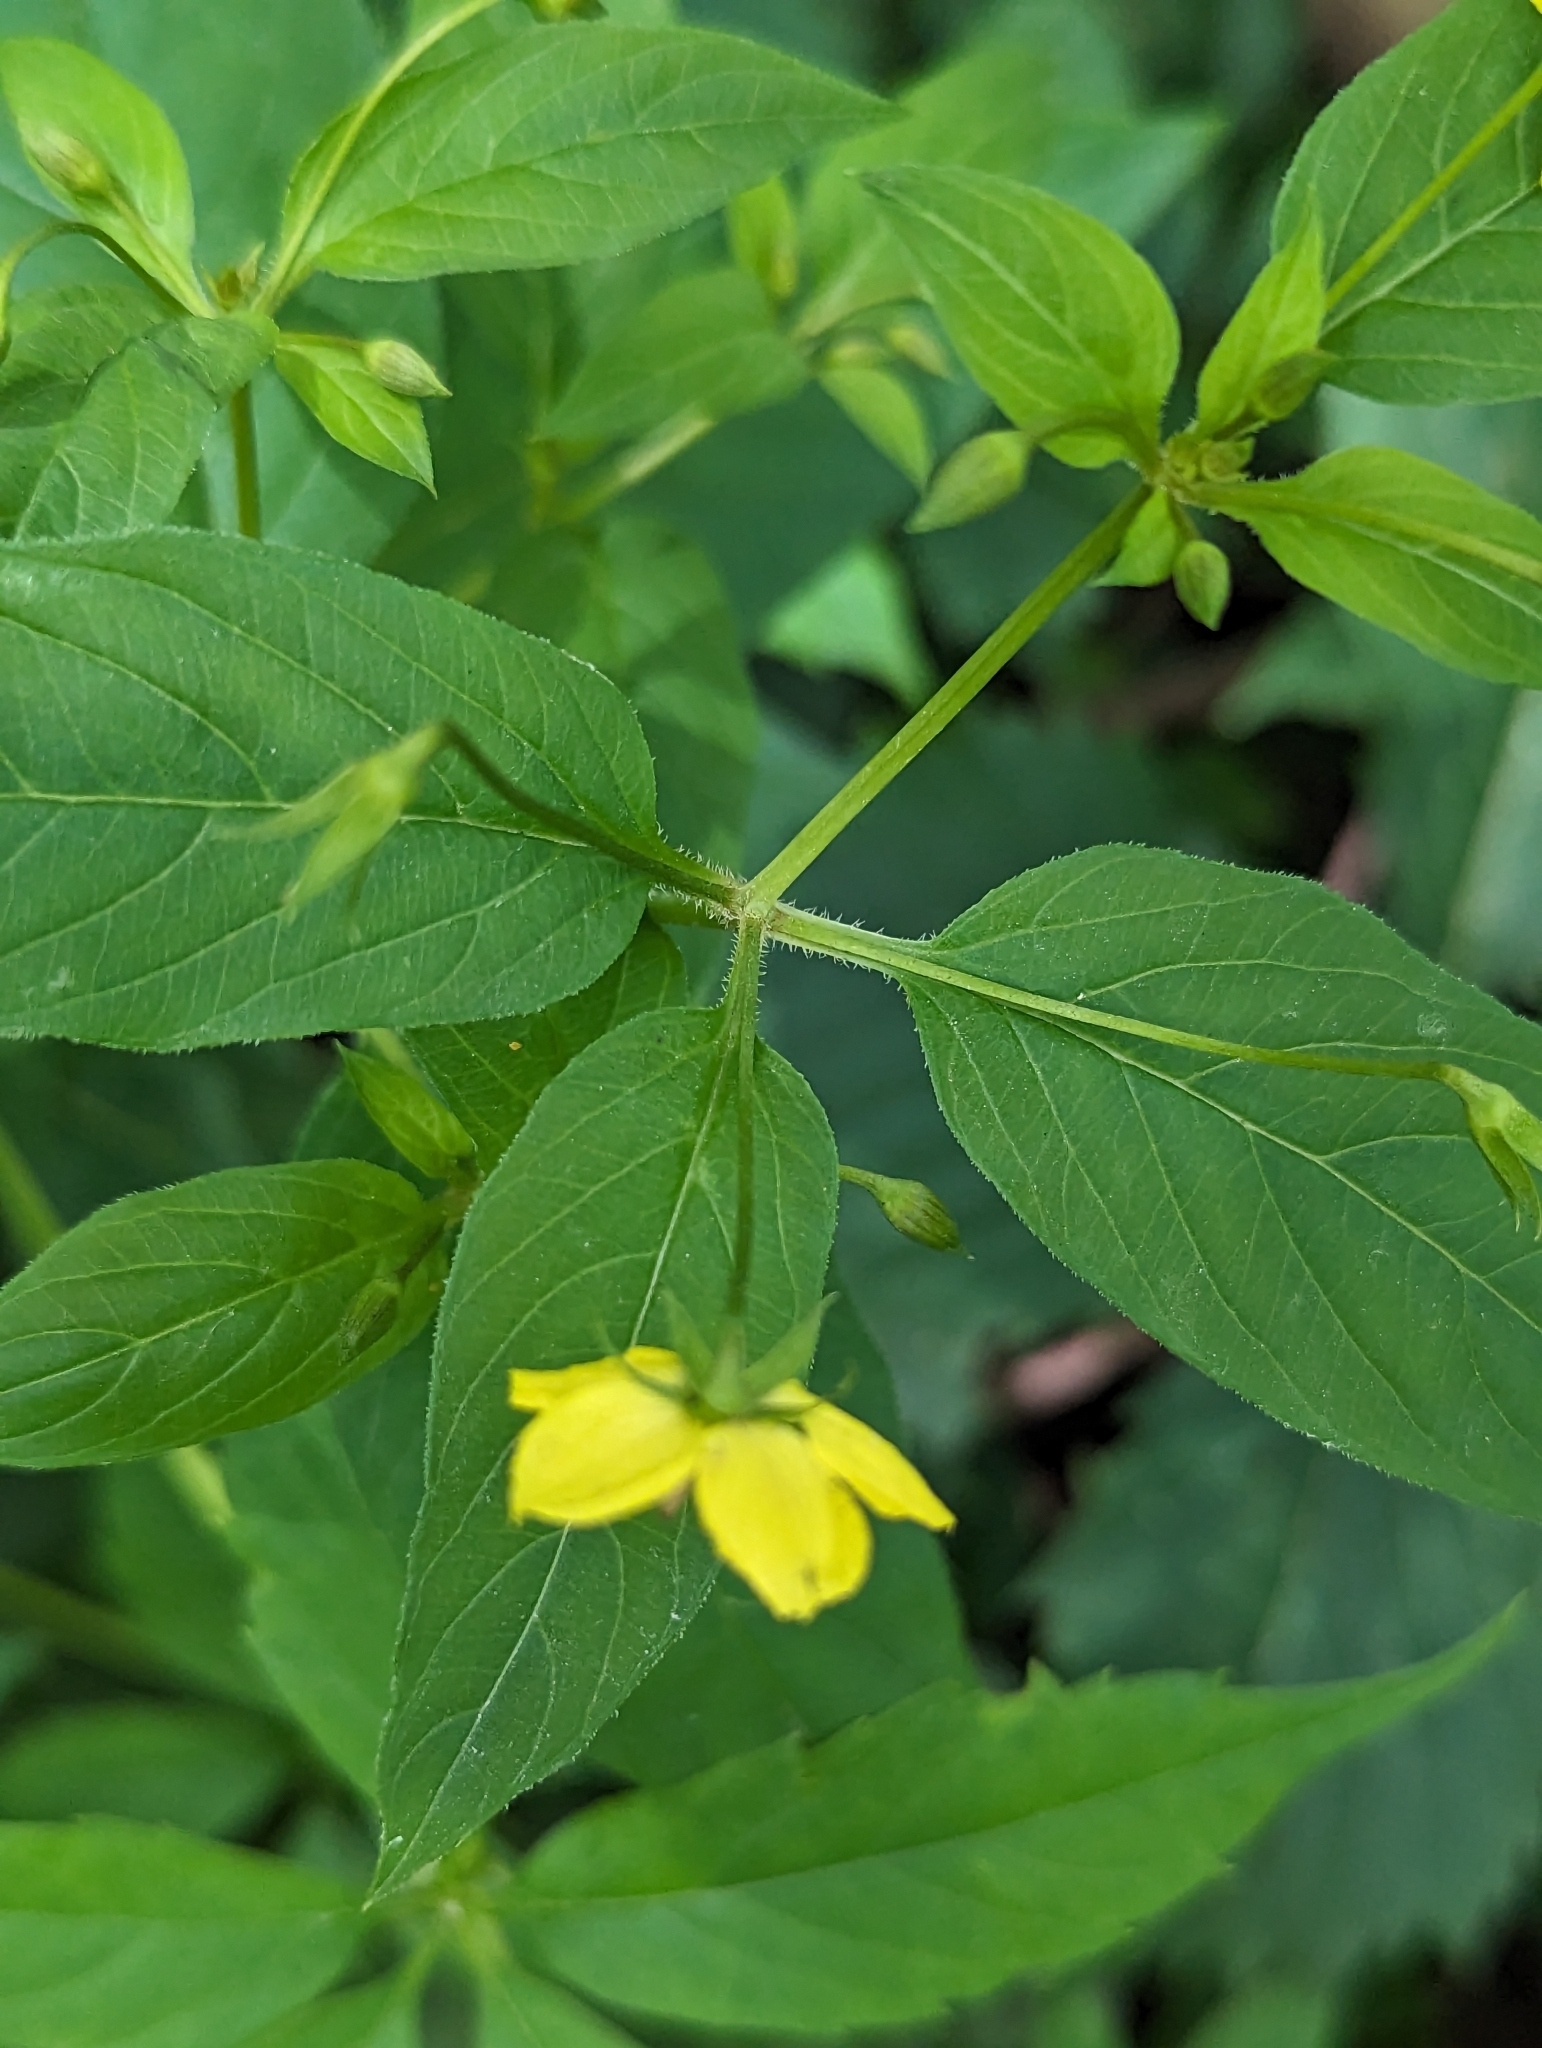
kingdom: Plantae
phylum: Tracheophyta
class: Magnoliopsida
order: Ericales
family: Primulaceae
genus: Lysimachia
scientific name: Lysimachia ciliata
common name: Fringed loosestrife
